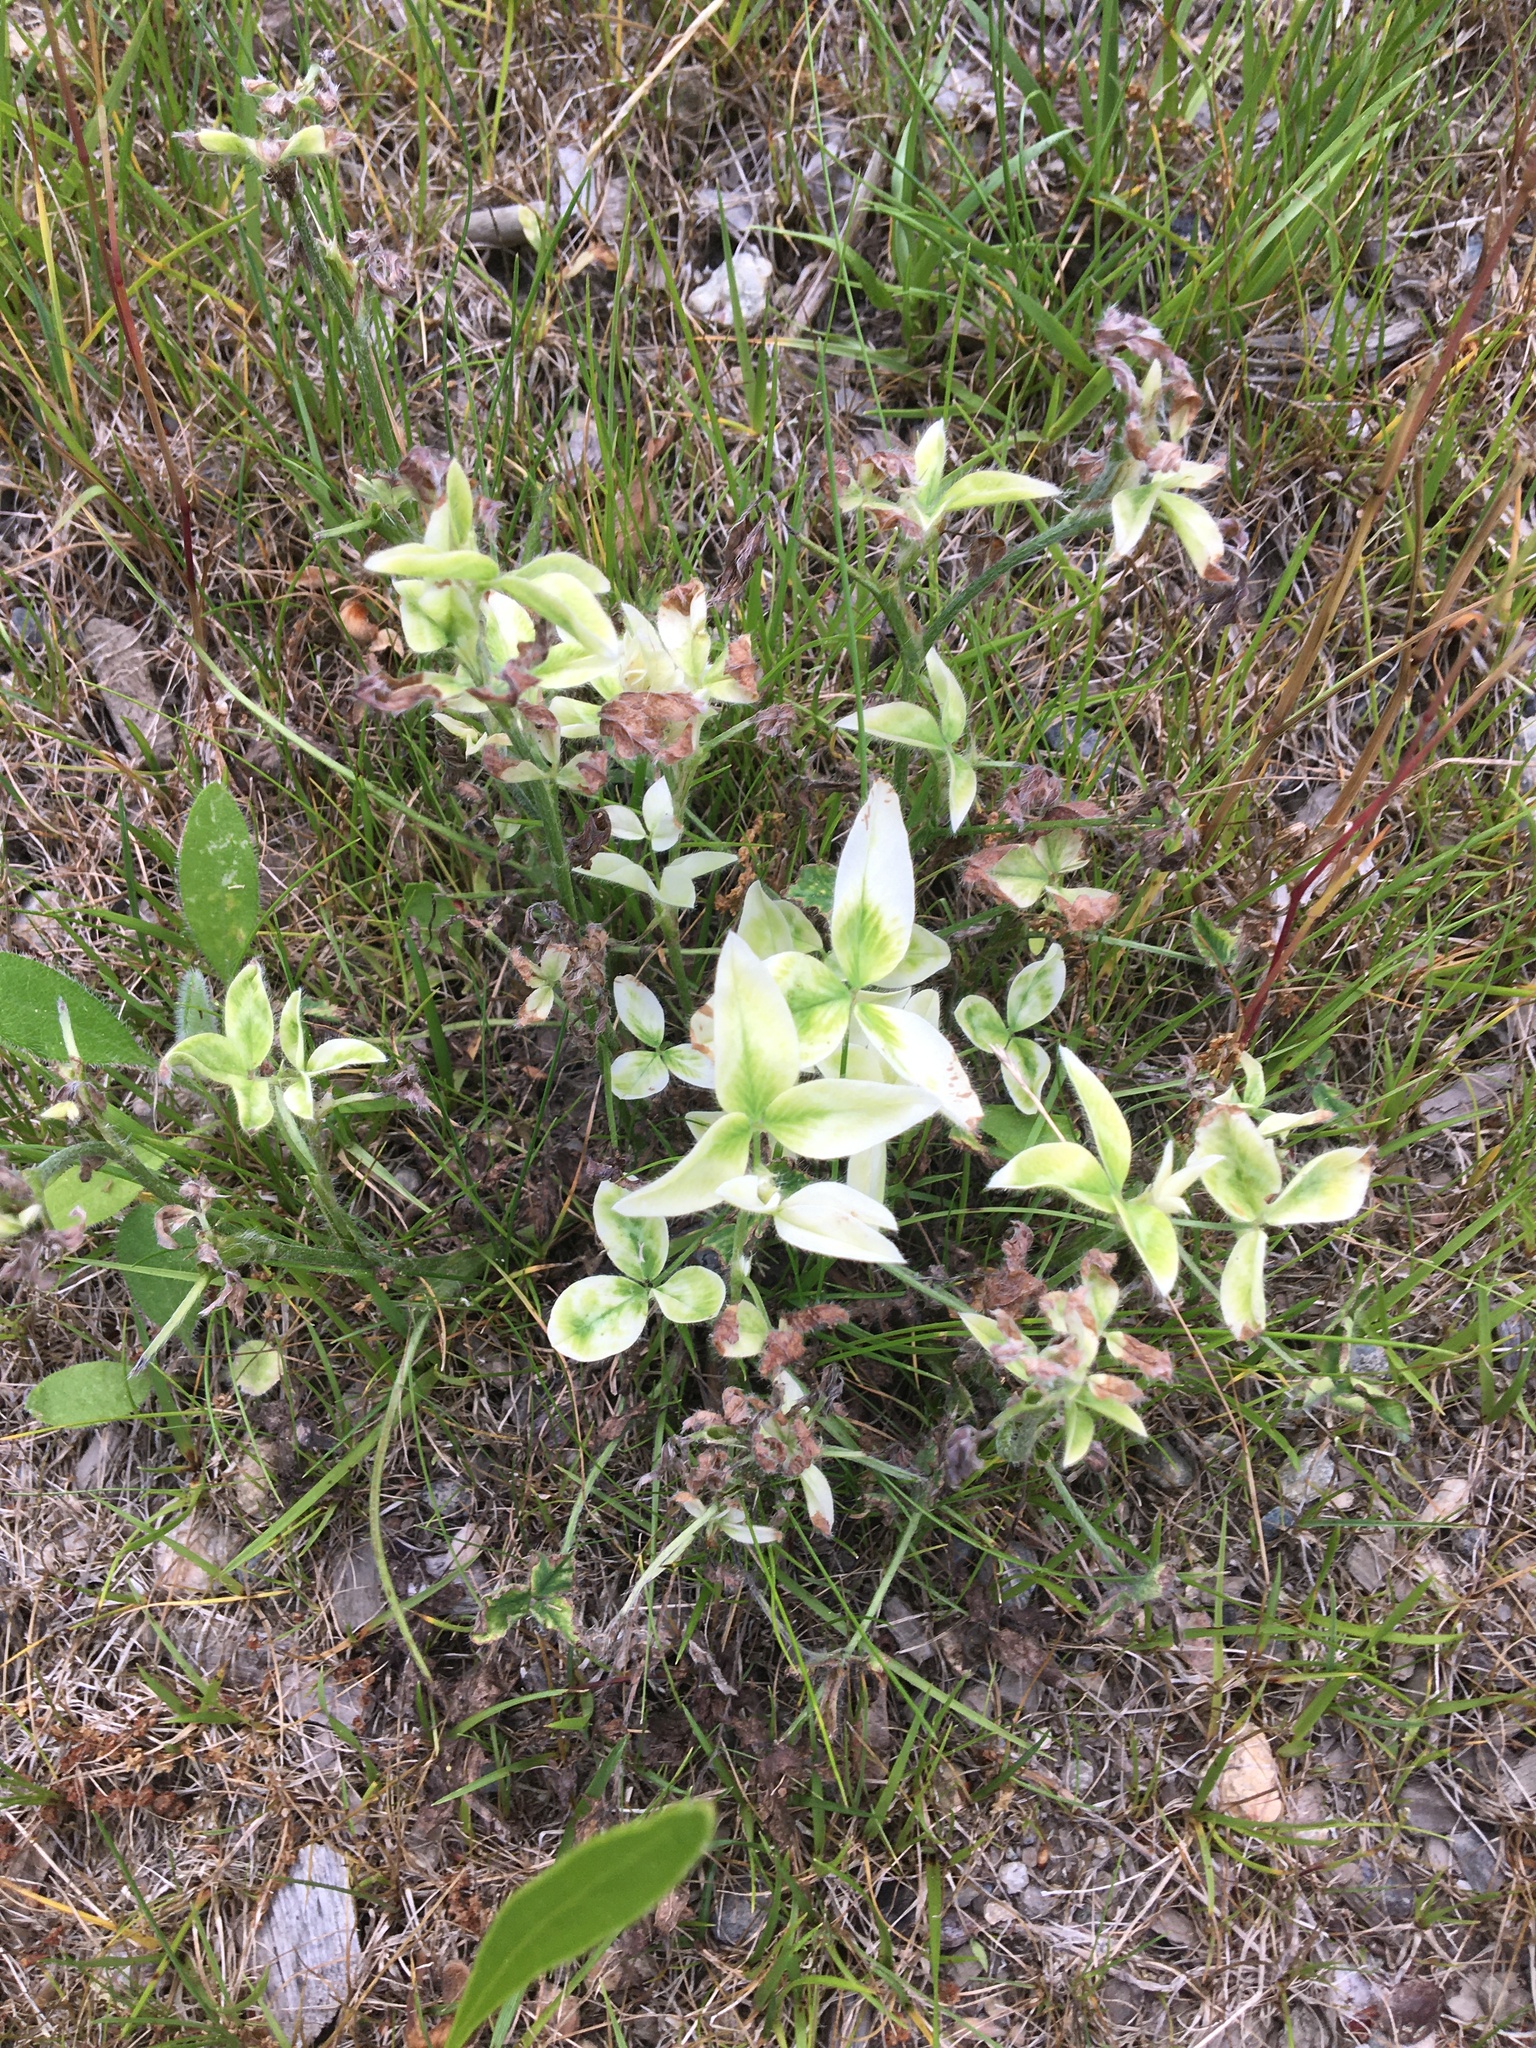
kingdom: Plantae
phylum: Tracheophyta
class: Magnoliopsida
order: Fabales
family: Fabaceae
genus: Trifolium
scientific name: Trifolium pratense
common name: Red clover
